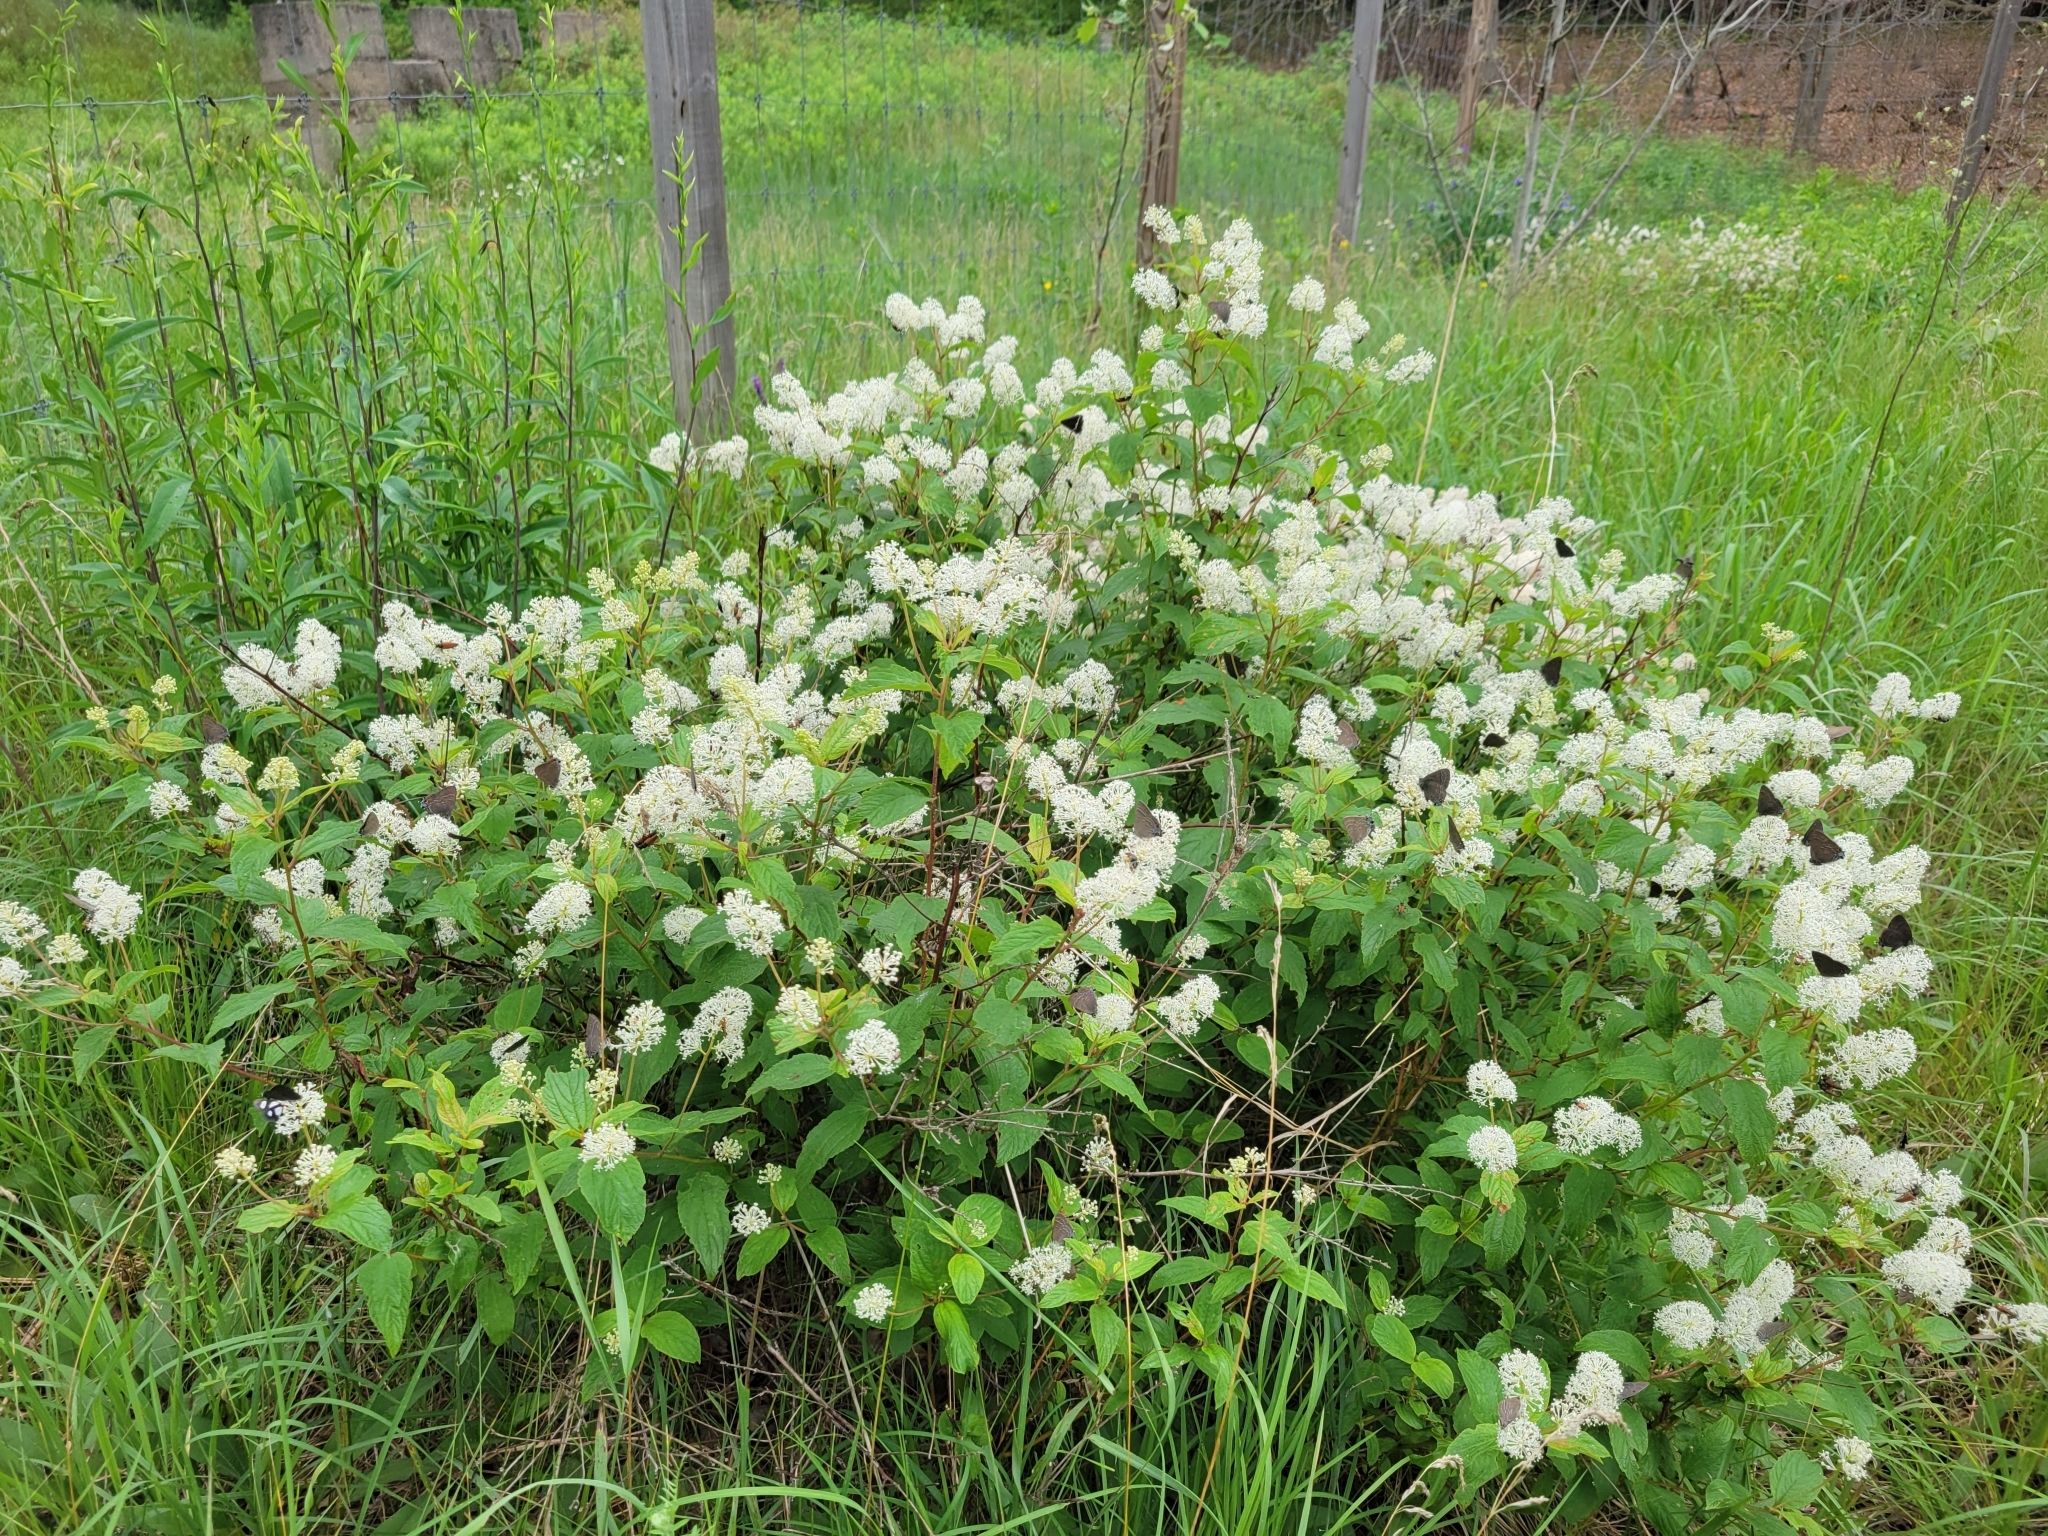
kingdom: Plantae
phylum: Tracheophyta
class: Magnoliopsida
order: Rosales
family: Rhamnaceae
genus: Ceanothus
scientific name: Ceanothus americanus
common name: Redroot
